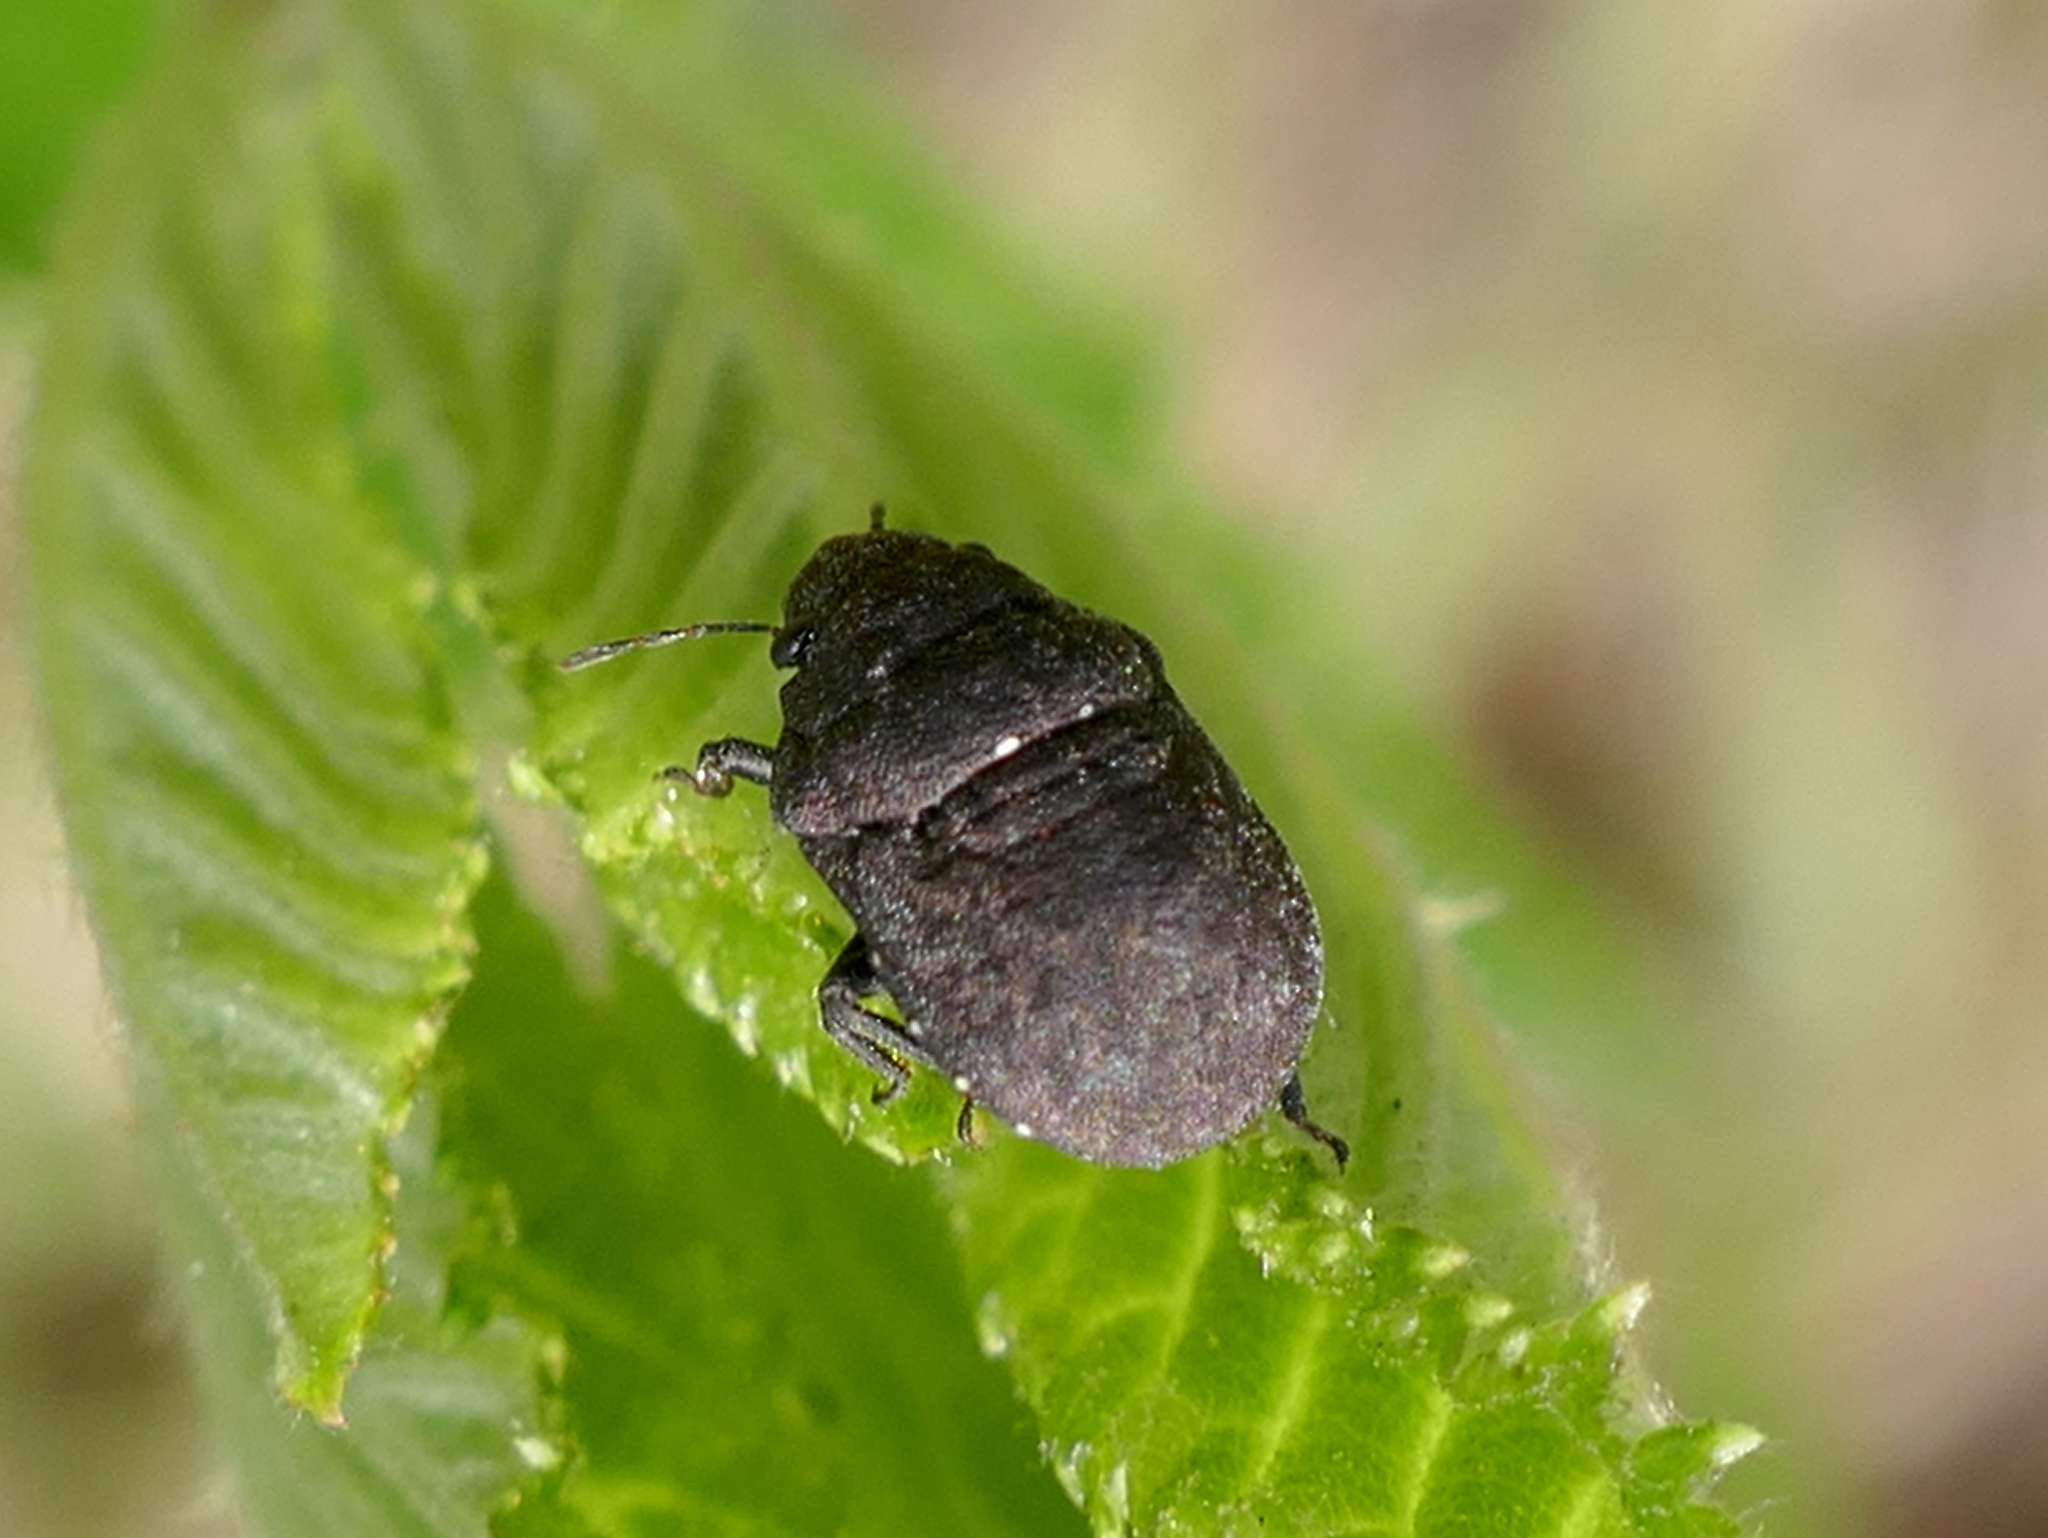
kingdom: Animalia
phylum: Arthropoda
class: Insecta
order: Hemiptera
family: Scutelleridae
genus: Camirus
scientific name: Camirus porosus
